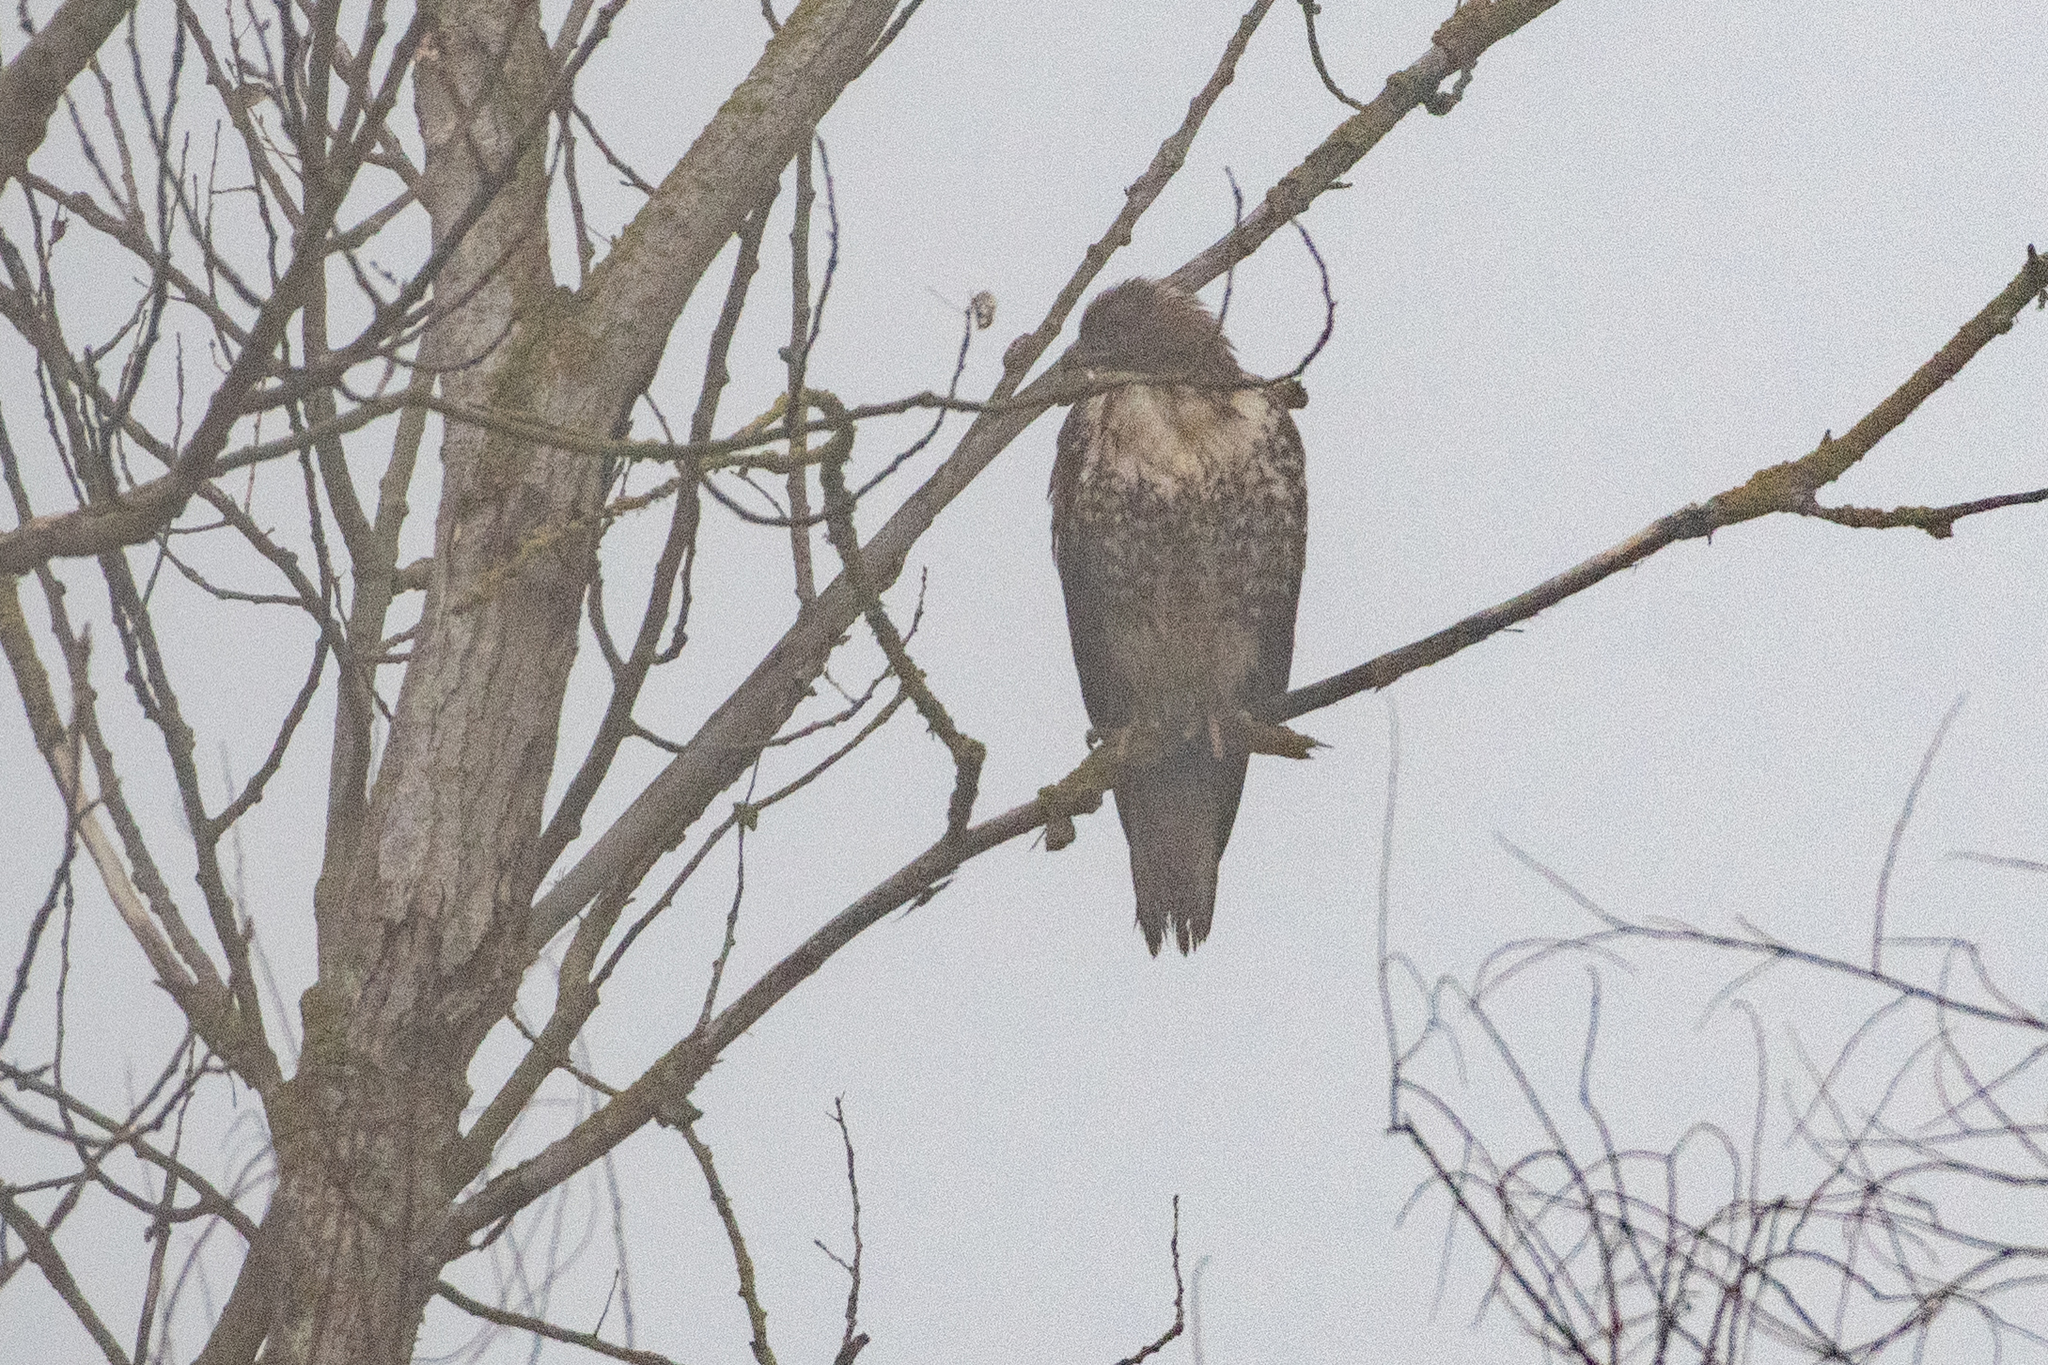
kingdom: Animalia
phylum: Chordata
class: Aves
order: Accipitriformes
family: Accipitridae
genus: Buteo
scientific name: Buteo jamaicensis
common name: Red-tailed hawk
